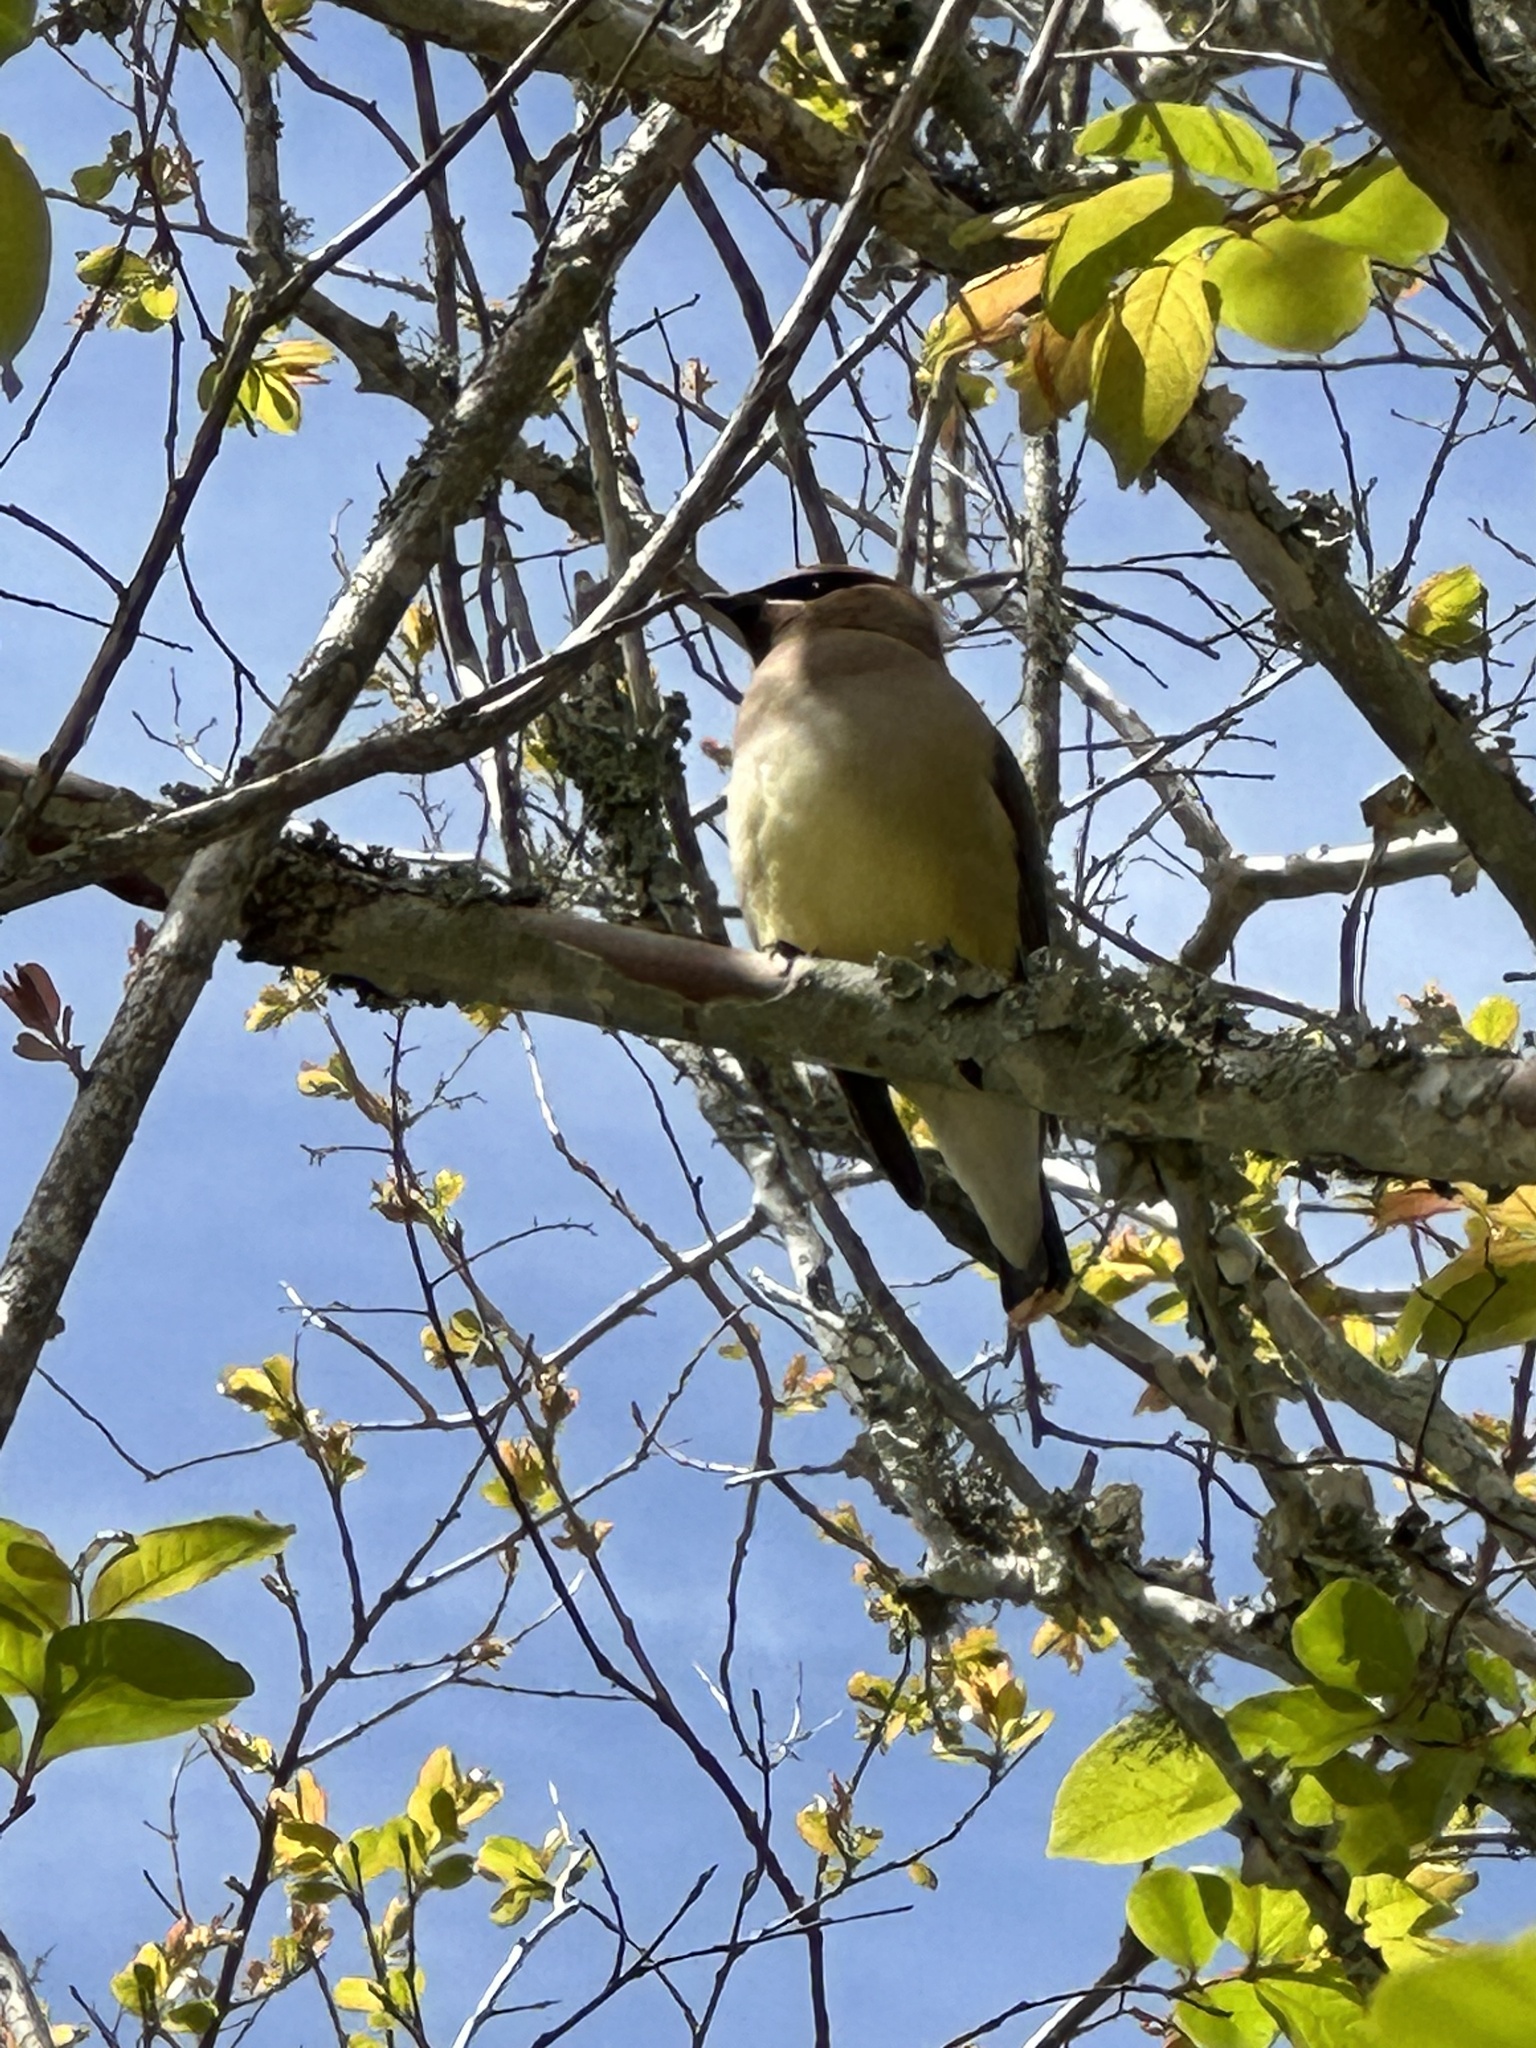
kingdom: Animalia
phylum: Chordata
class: Aves
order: Passeriformes
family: Bombycillidae
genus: Bombycilla
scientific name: Bombycilla cedrorum
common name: Cedar waxwing
